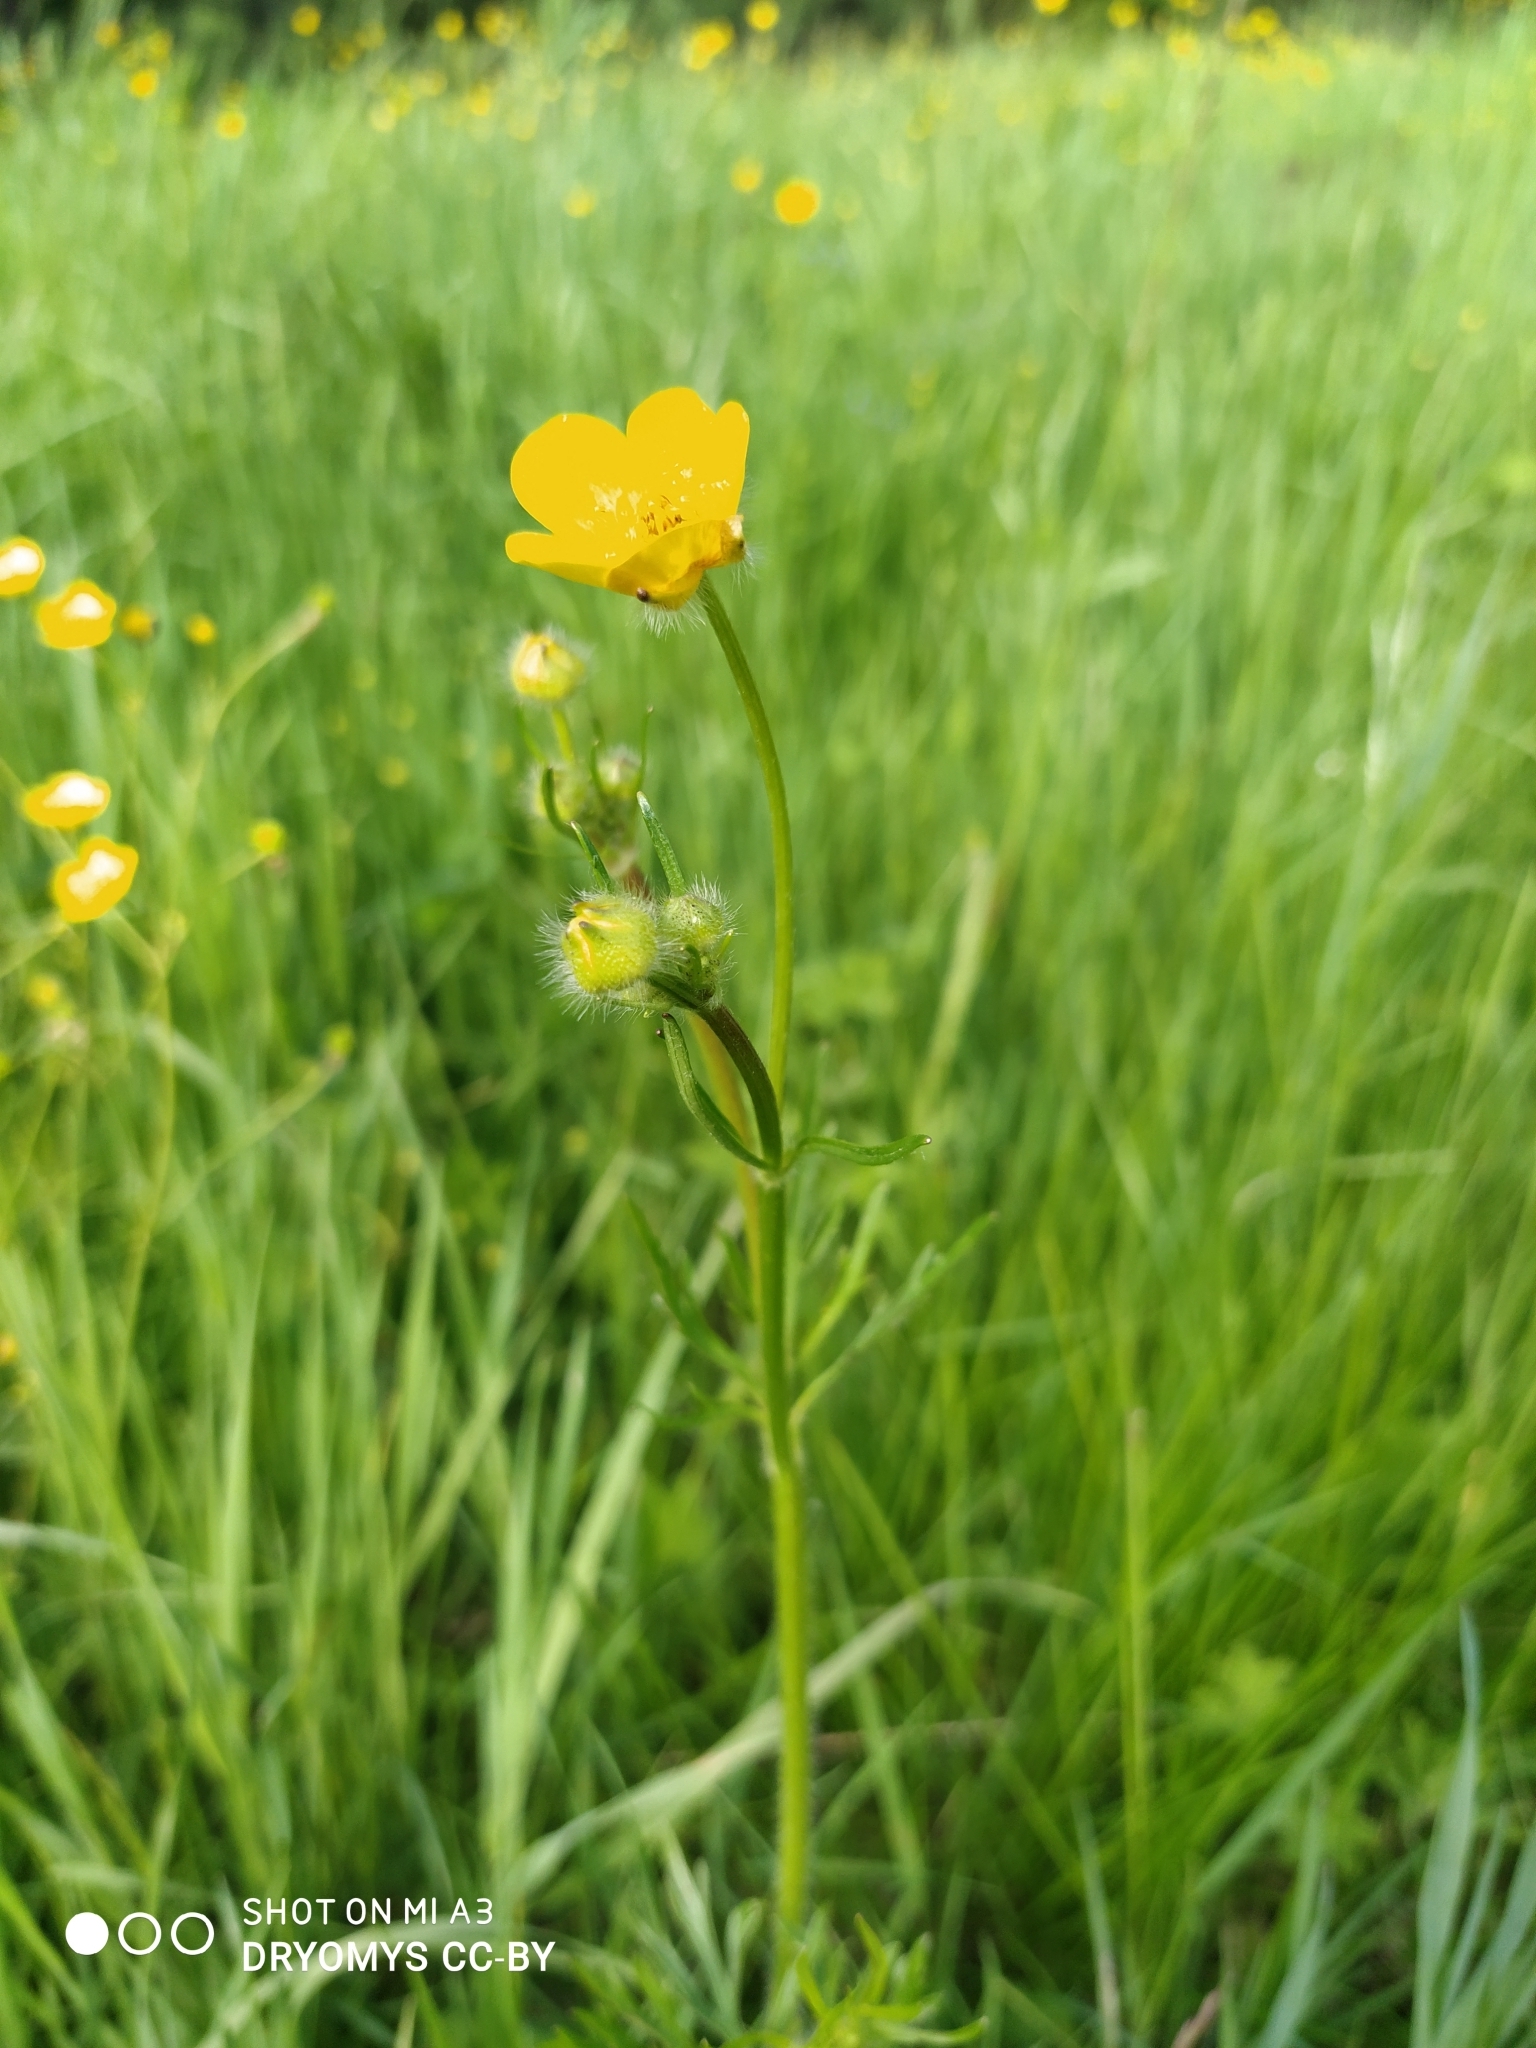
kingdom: Plantae
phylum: Tracheophyta
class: Magnoliopsida
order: Ranunculales
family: Ranunculaceae
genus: Ranunculus
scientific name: Ranunculus polyanthemos
